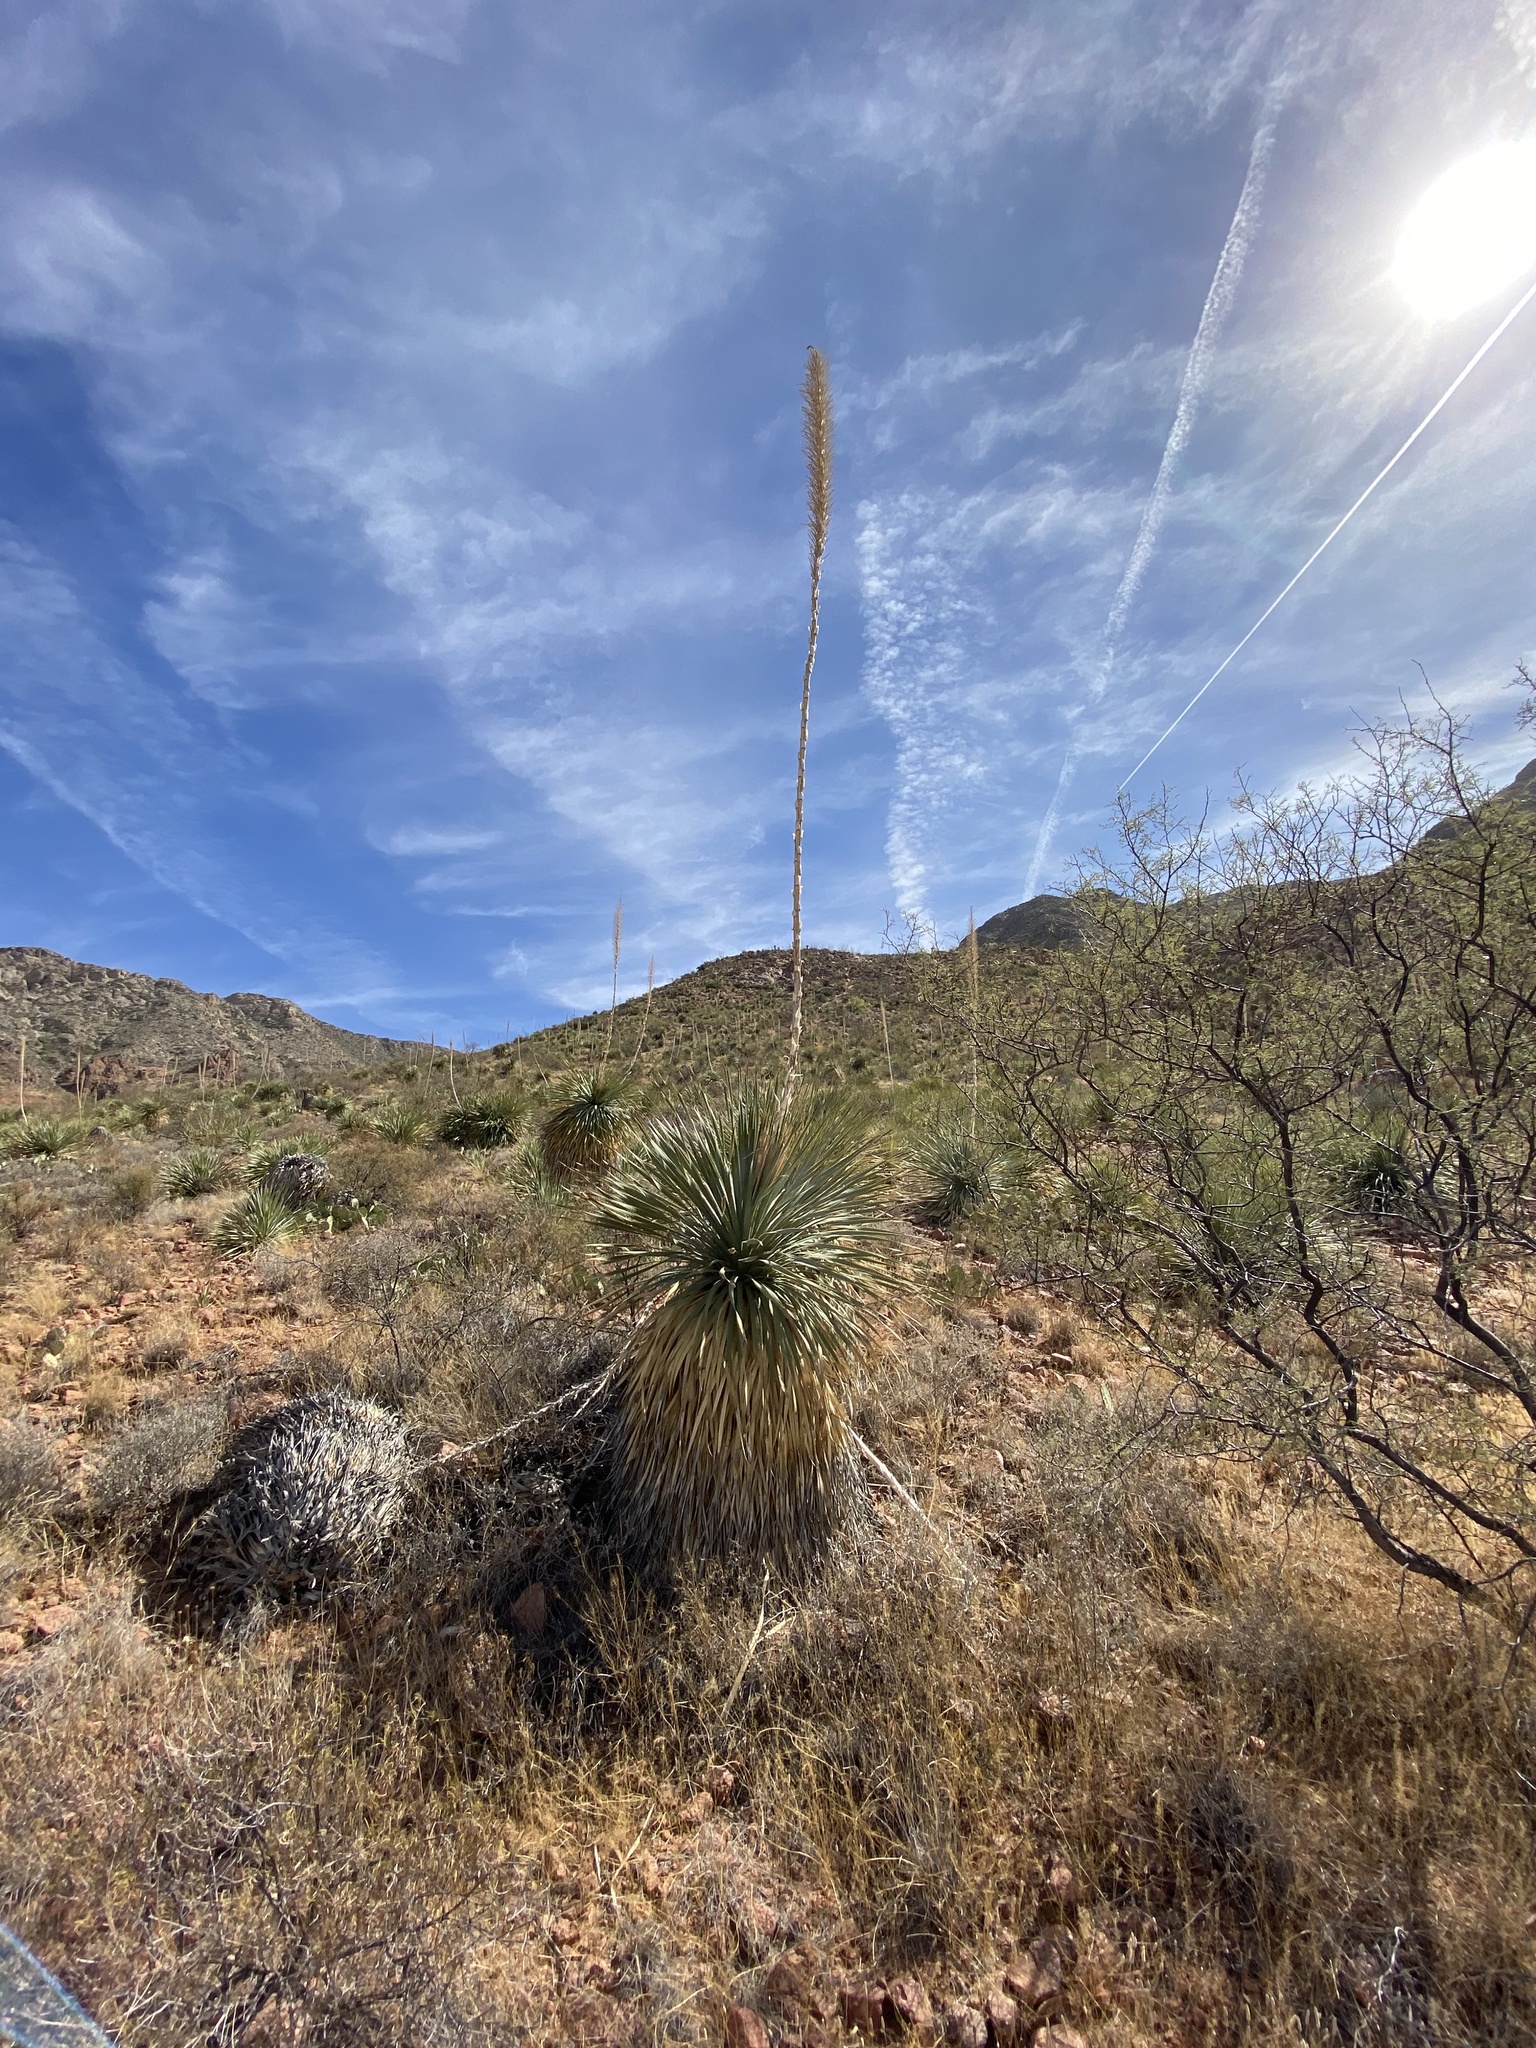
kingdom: Plantae
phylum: Tracheophyta
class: Liliopsida
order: Asparagales
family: Asparagaceae
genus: Dasylirion
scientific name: Dasylirion wheeleri
